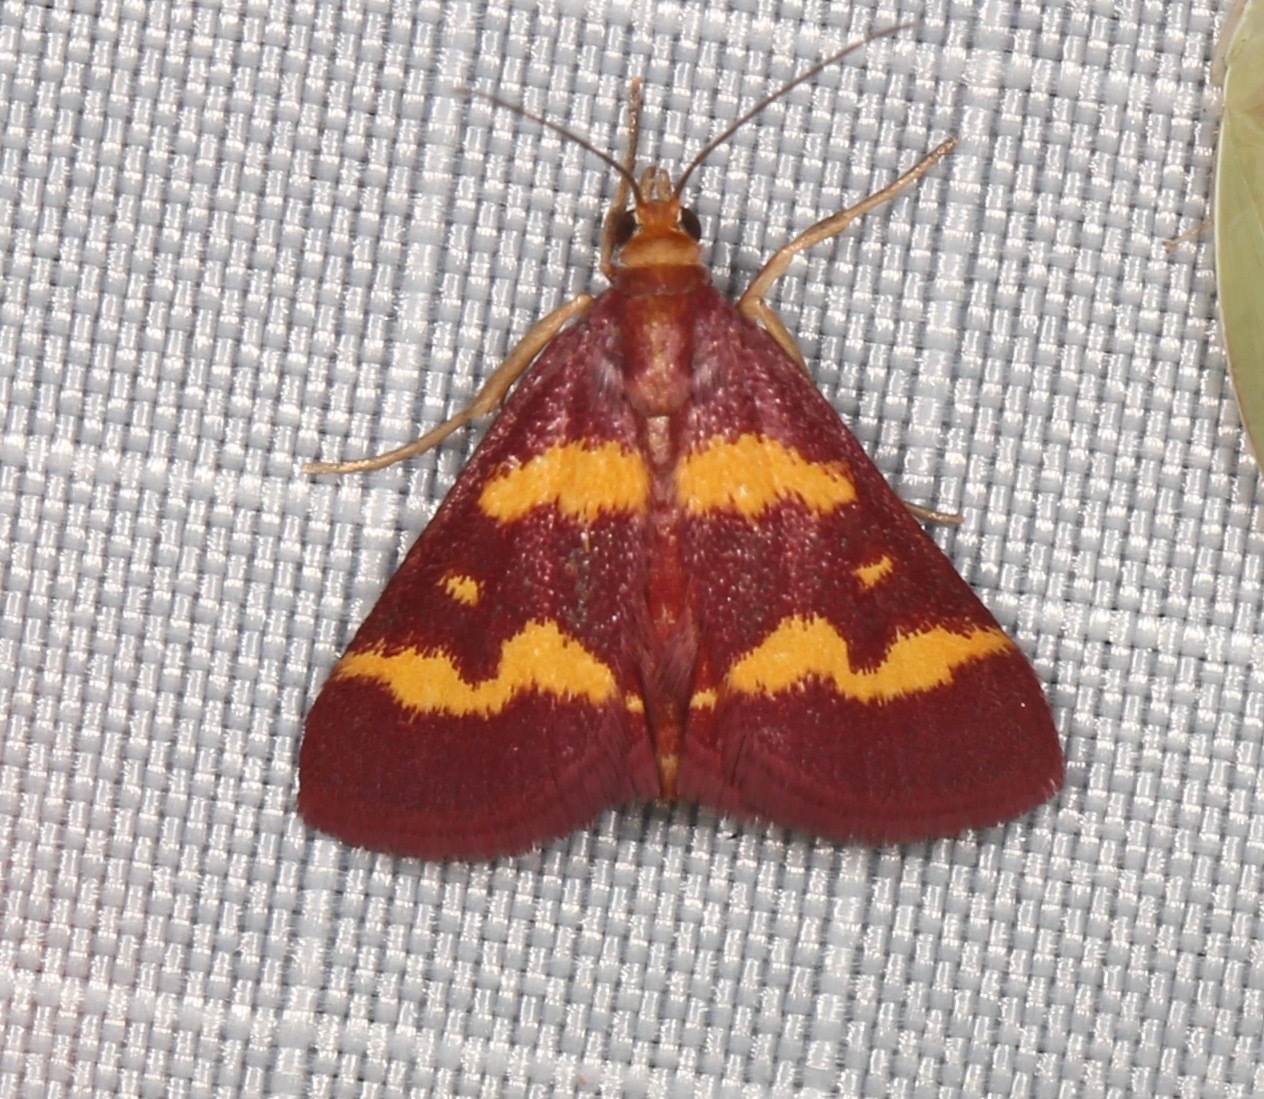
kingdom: Animalia
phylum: Arthropoda
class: Insecta
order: Lepidoptera
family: Crambidae
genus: Pyrausta
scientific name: Pyrausta tyralis
